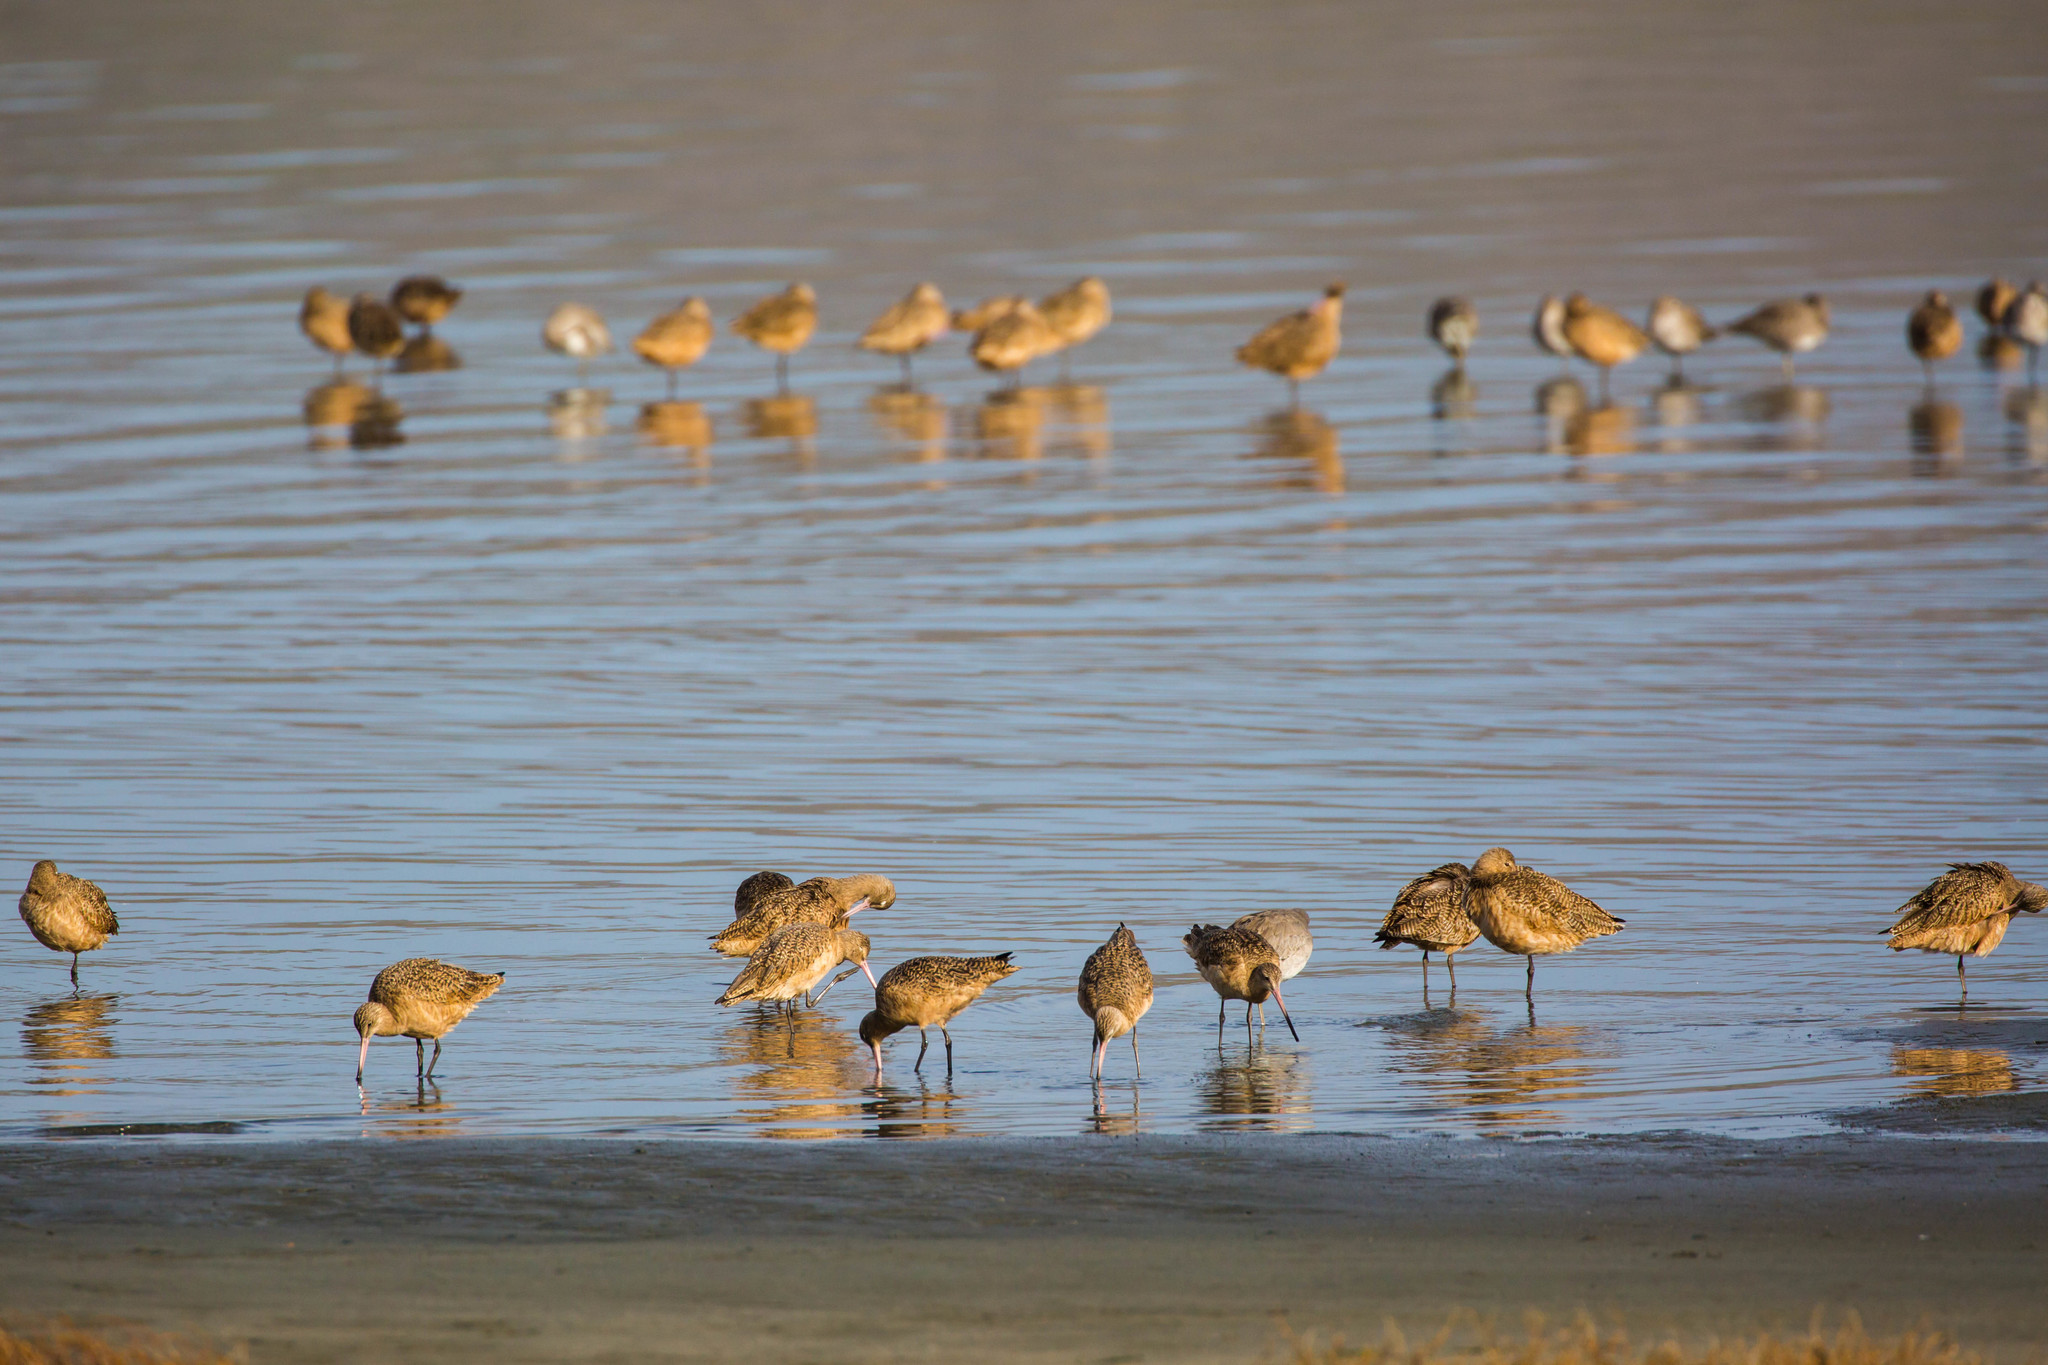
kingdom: Animalia
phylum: Chordata
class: Aves
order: Charadriiformes
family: Scolopacidae
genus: Limosa
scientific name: Limosa fedoa
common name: Marbled godwit
